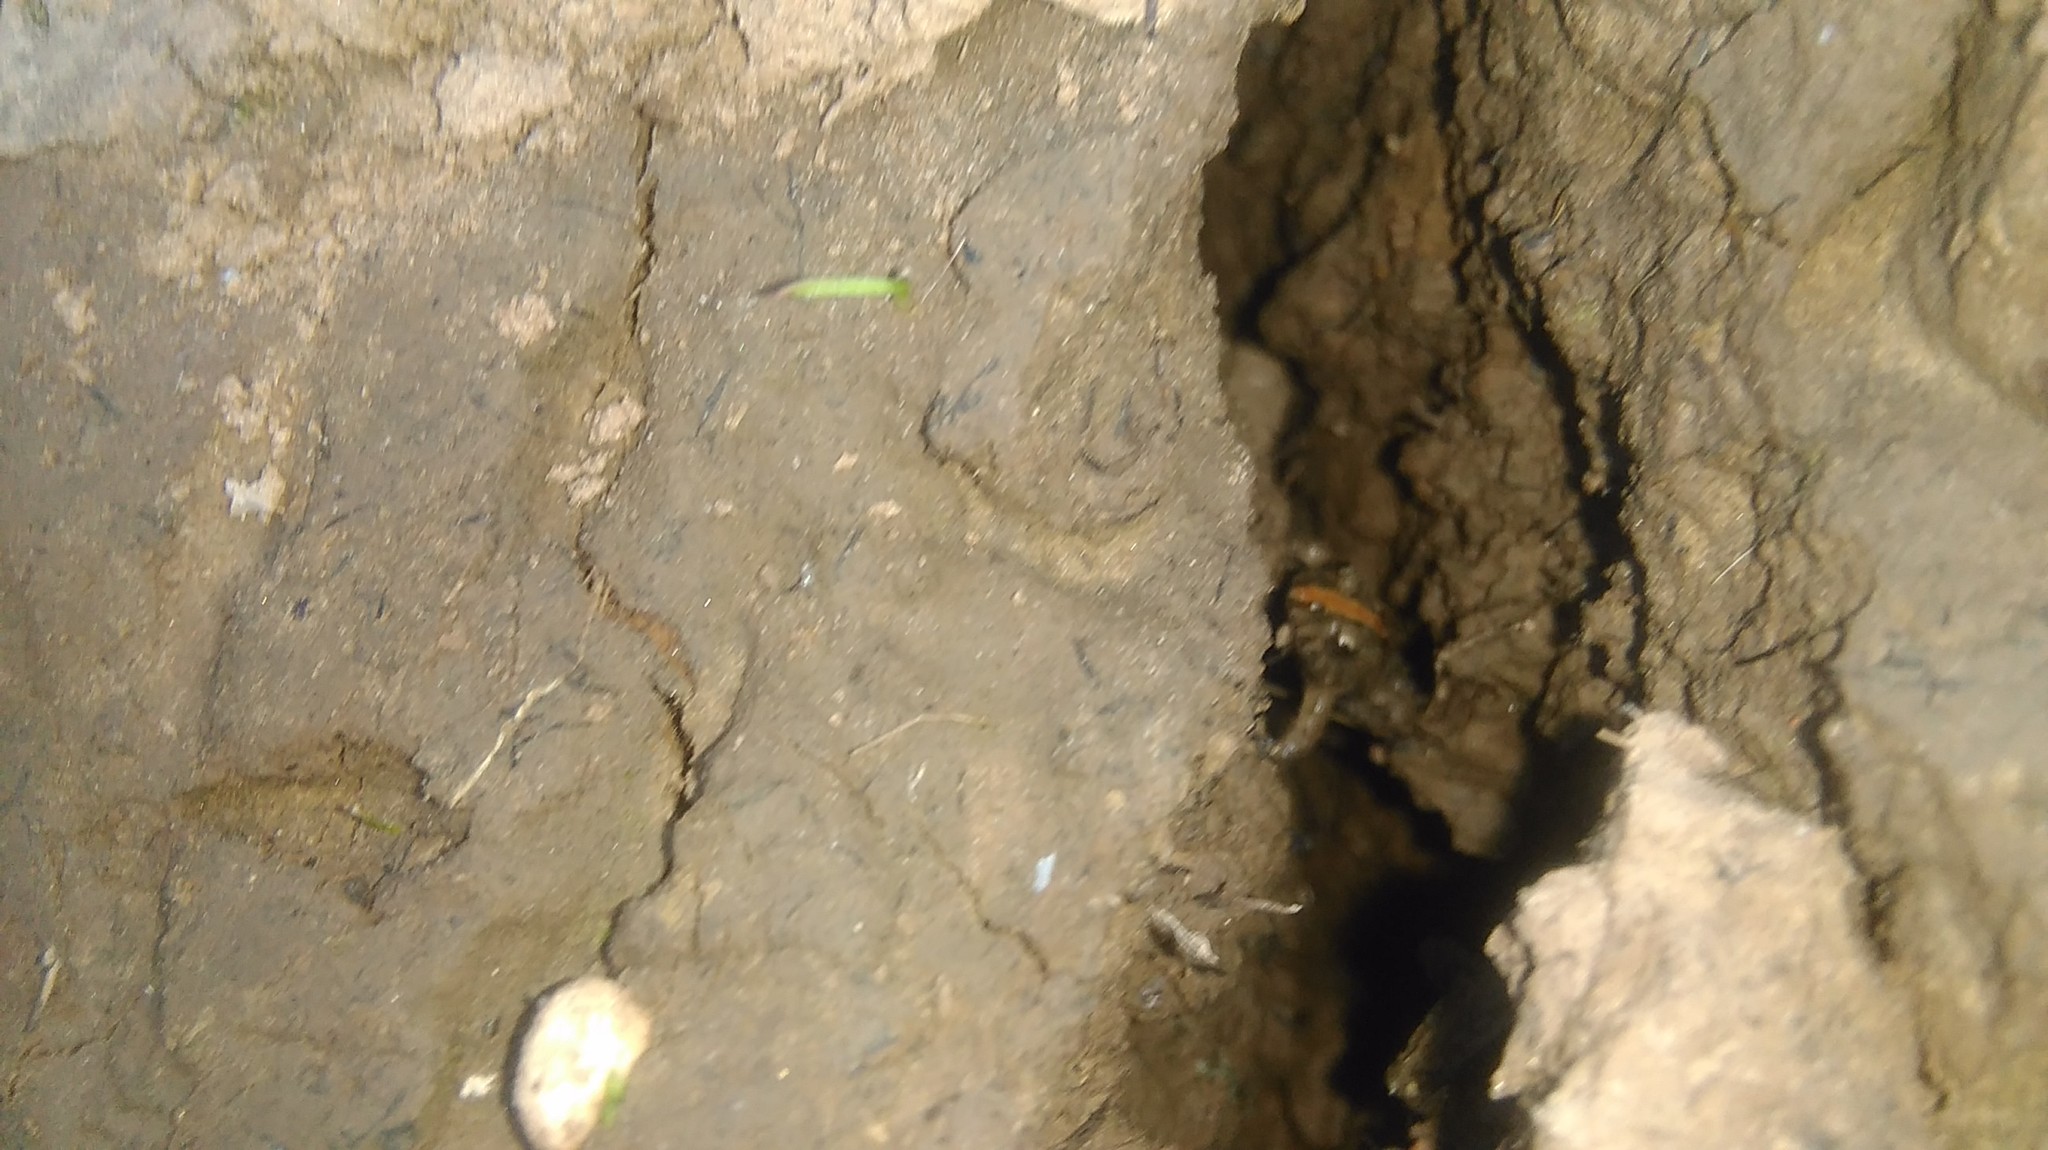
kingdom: Animalia
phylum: Chordata
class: Amphibia
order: Anura
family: Leptodactylidae
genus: Pseudopaludicola
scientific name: Pseudopaludicola falcipes
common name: Hensel’s swamp frog
